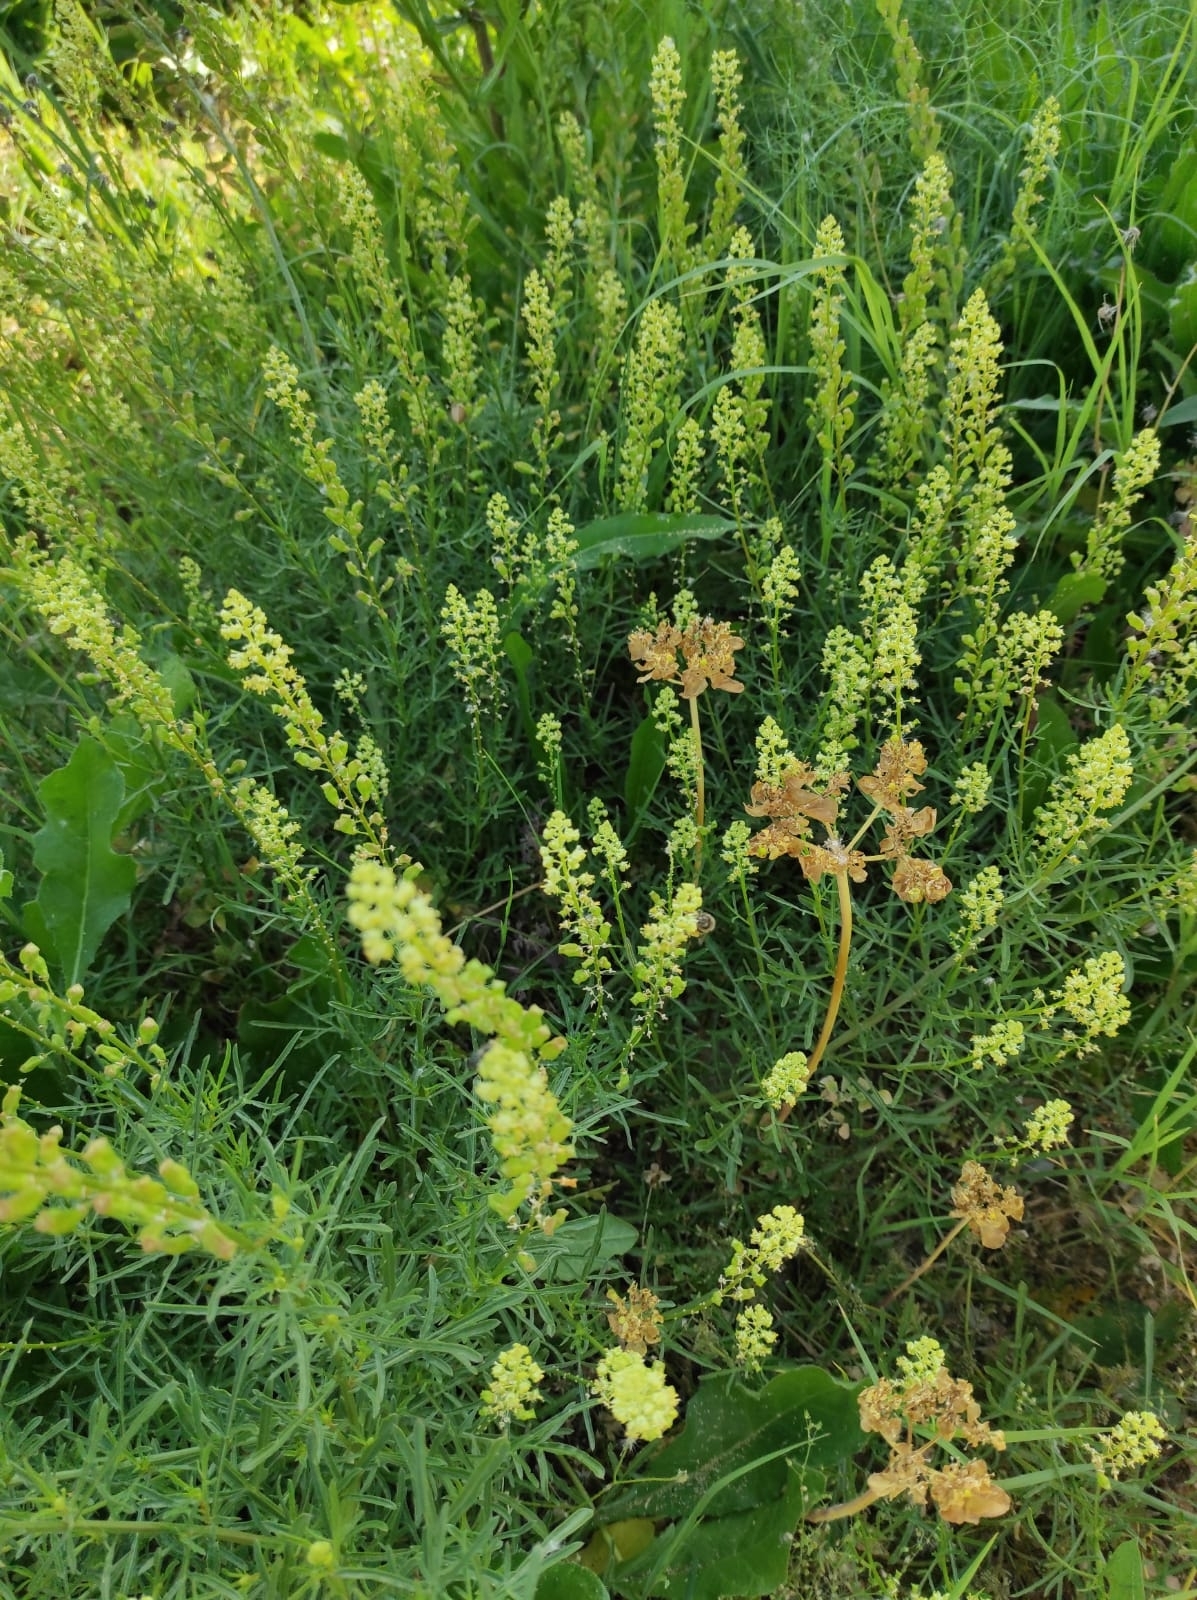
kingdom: Plantae
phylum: Tracheophyta
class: Magnoliopsida
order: Brassicales
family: Resedaceae
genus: Reseda
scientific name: Reseda lutea
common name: Wild mignonette
